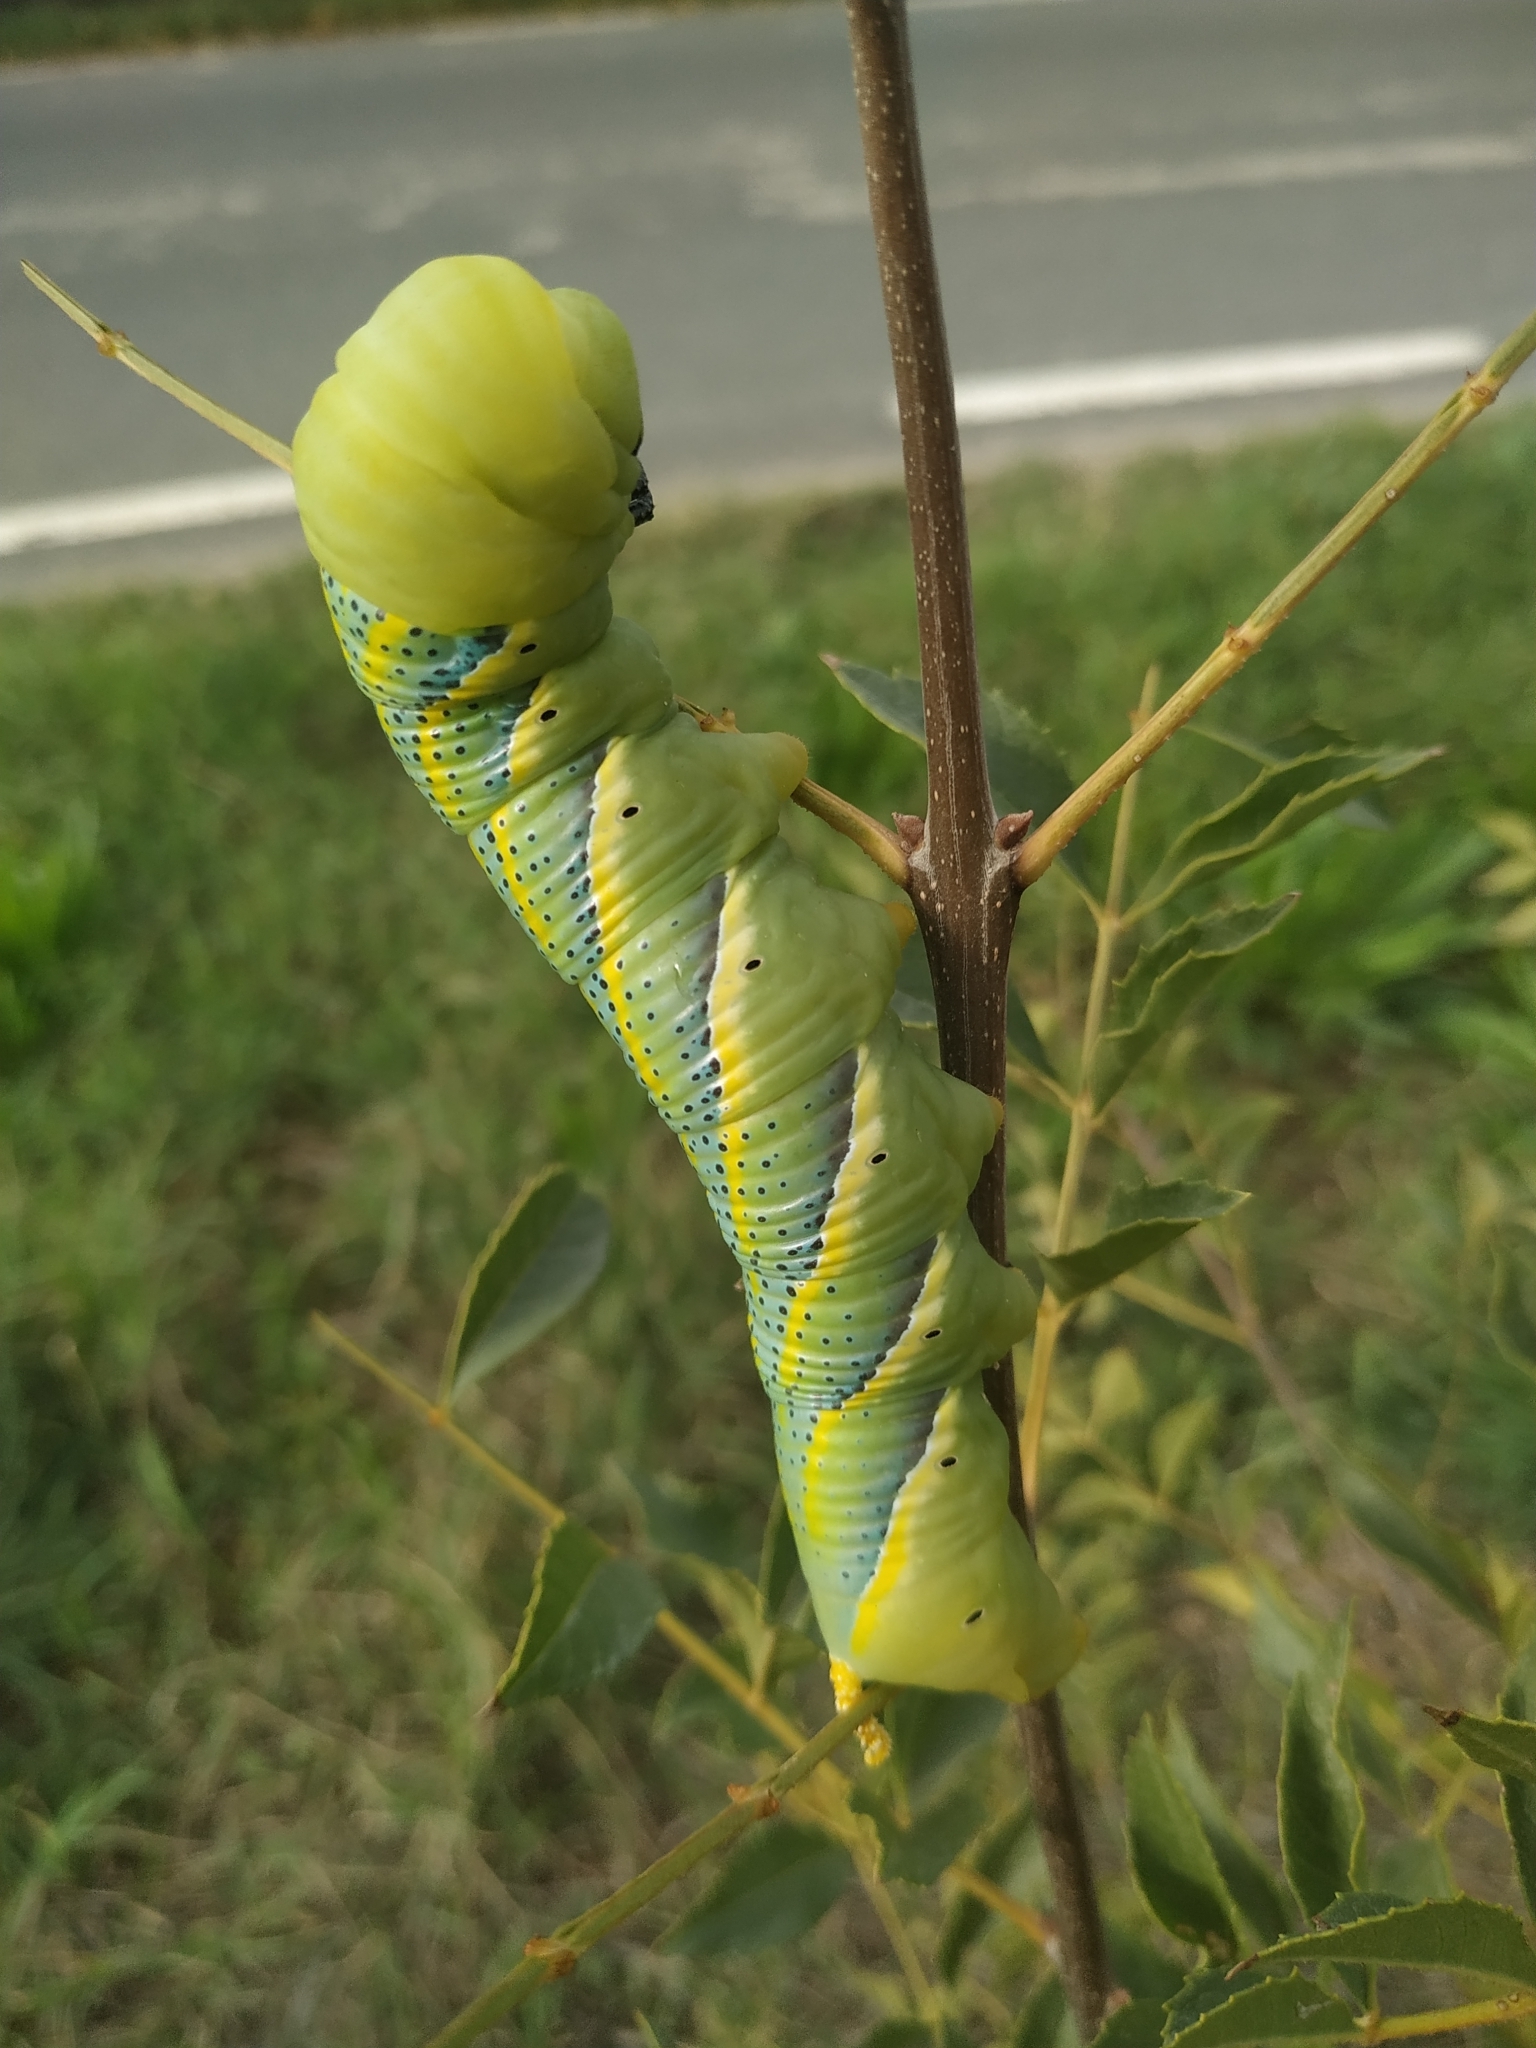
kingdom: Animalia
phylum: Arthropoda
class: Insecta
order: Lepidoptera
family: Sphingidae
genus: Acherontia
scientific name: Acherontia atropos
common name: Death's-head hawk moth
